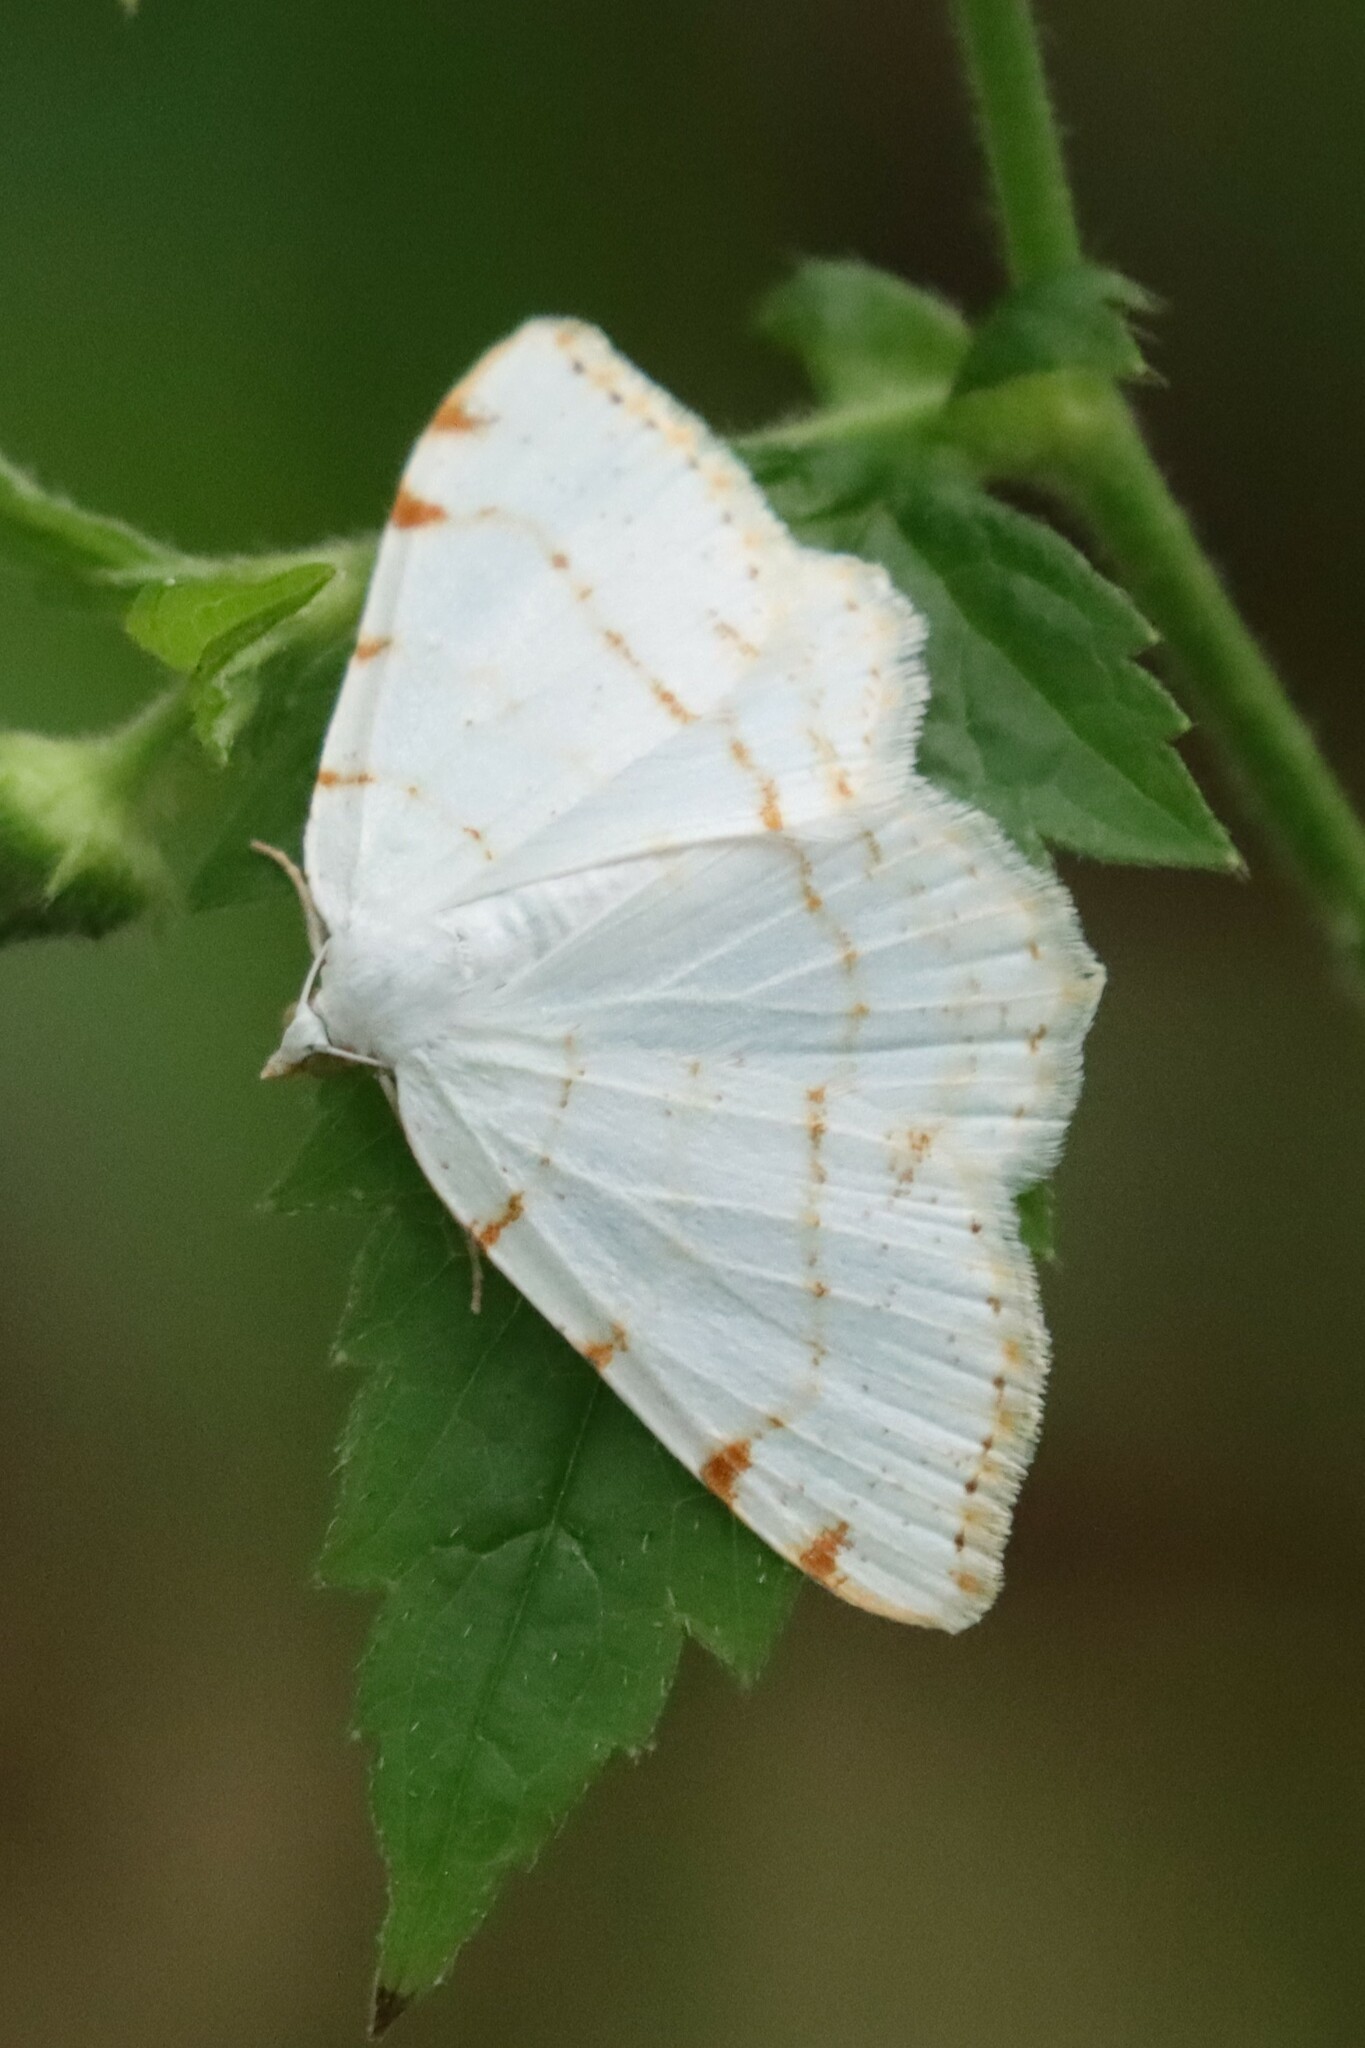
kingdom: Animalia
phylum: Arthropoda
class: Insecta
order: Lepidoptera
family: Geometridae
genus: Macaria
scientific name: Macaria pustularia
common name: Lesser maple spanworm moth
